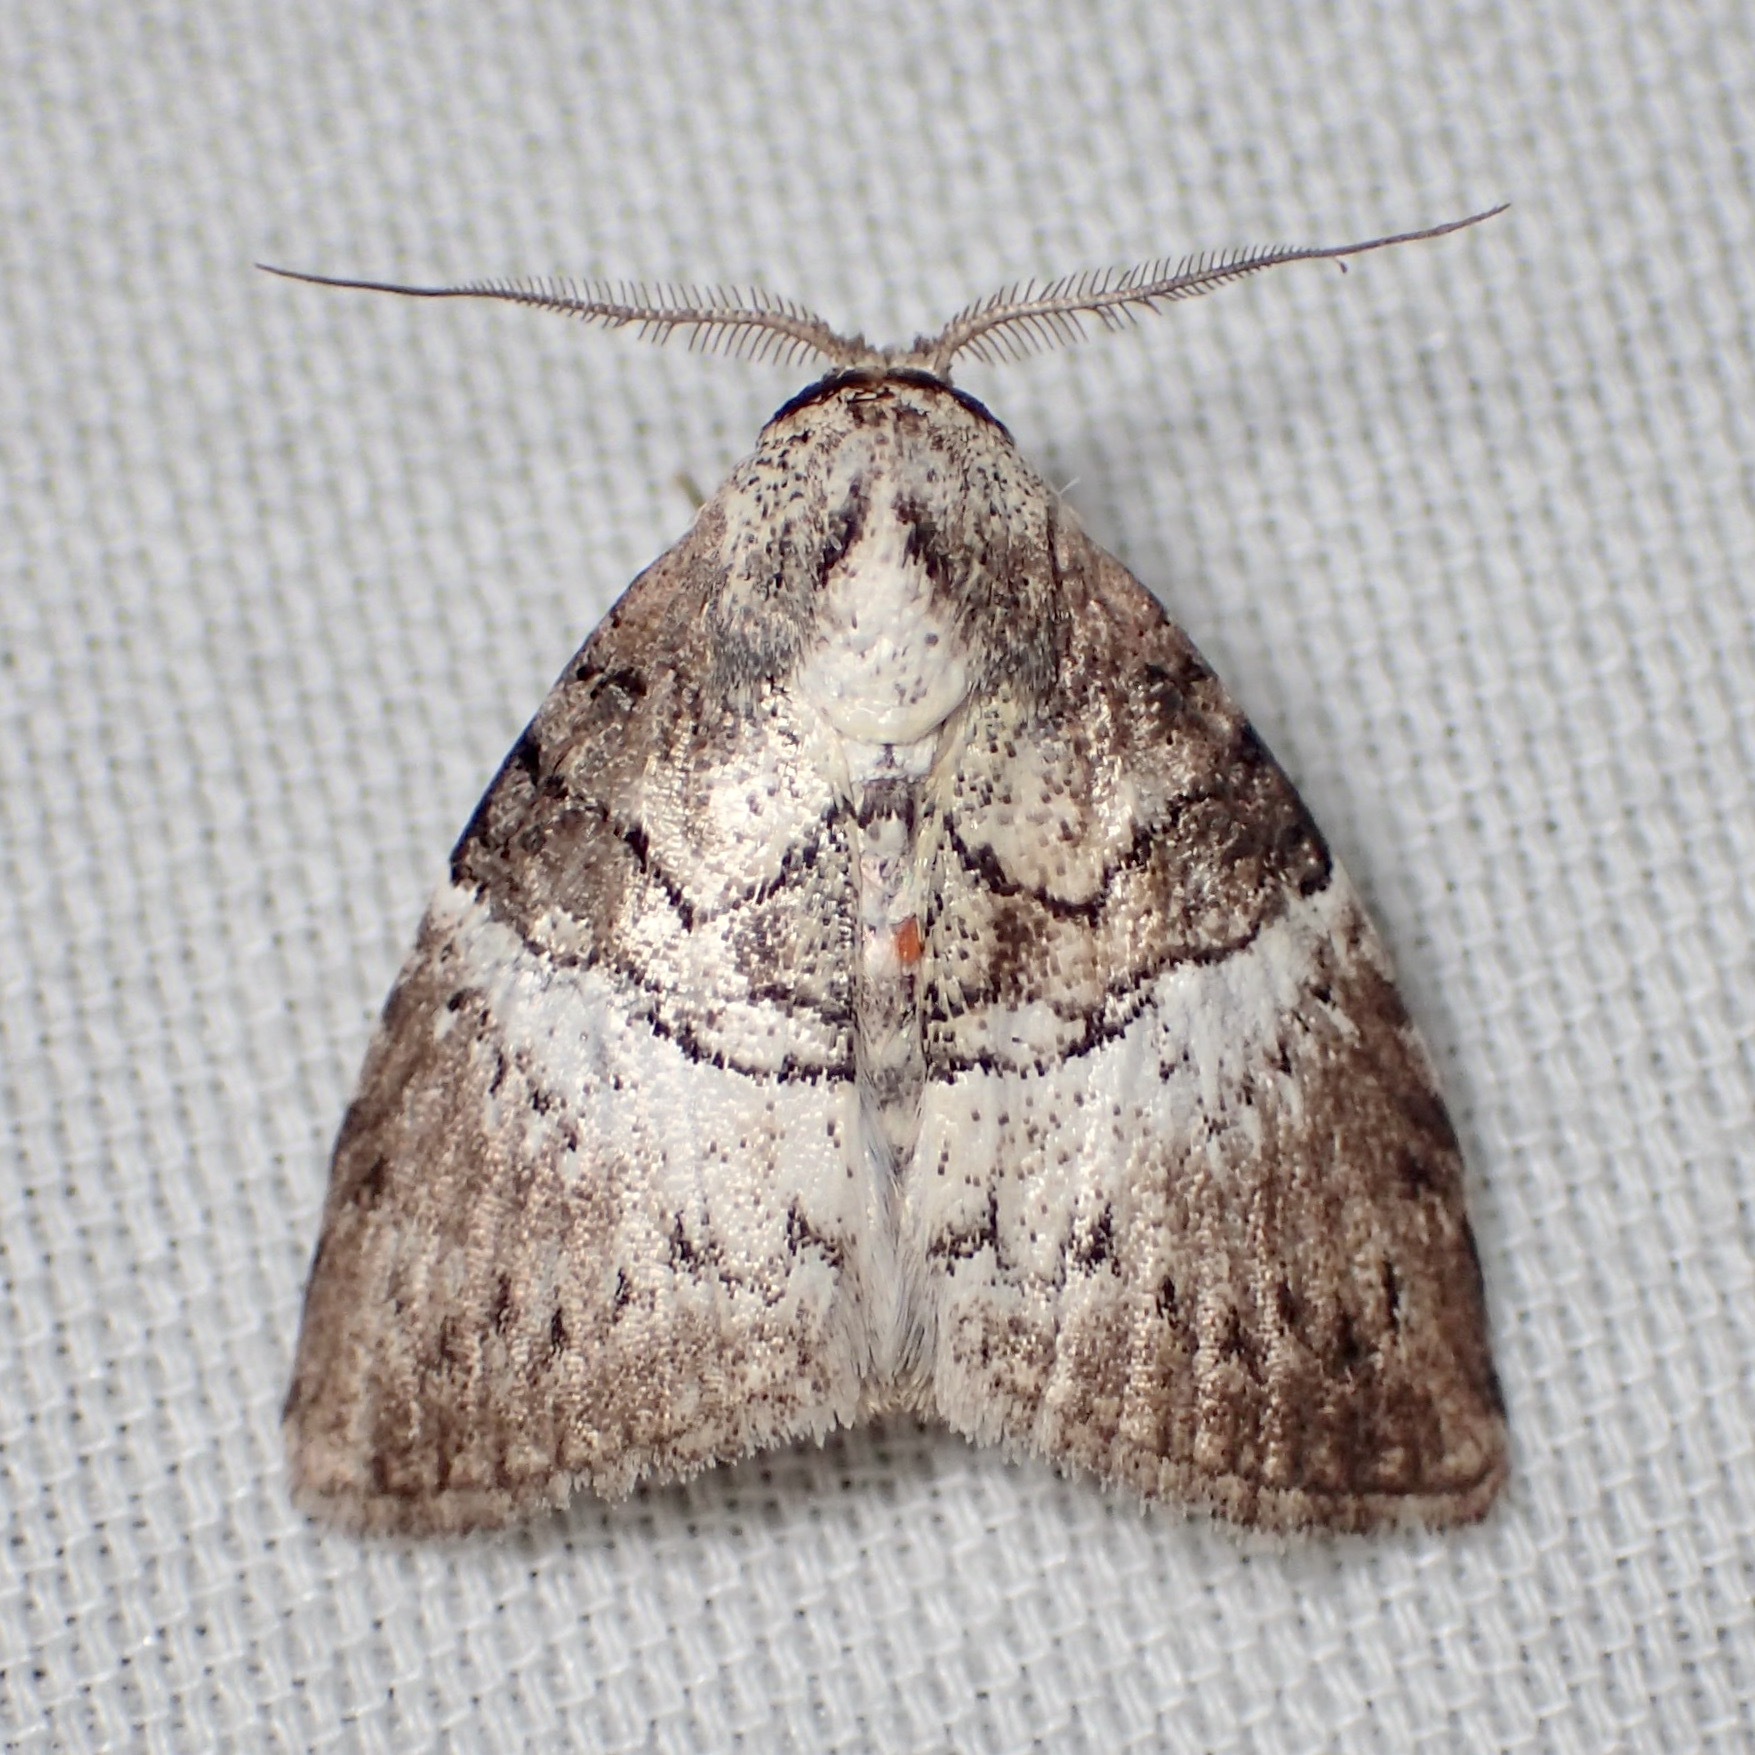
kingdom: Animalia
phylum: Arthropoda
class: Insecta
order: Lepidoptera
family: Nolidae
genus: Acatapaustus
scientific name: Acatapaustus mesoleuca
